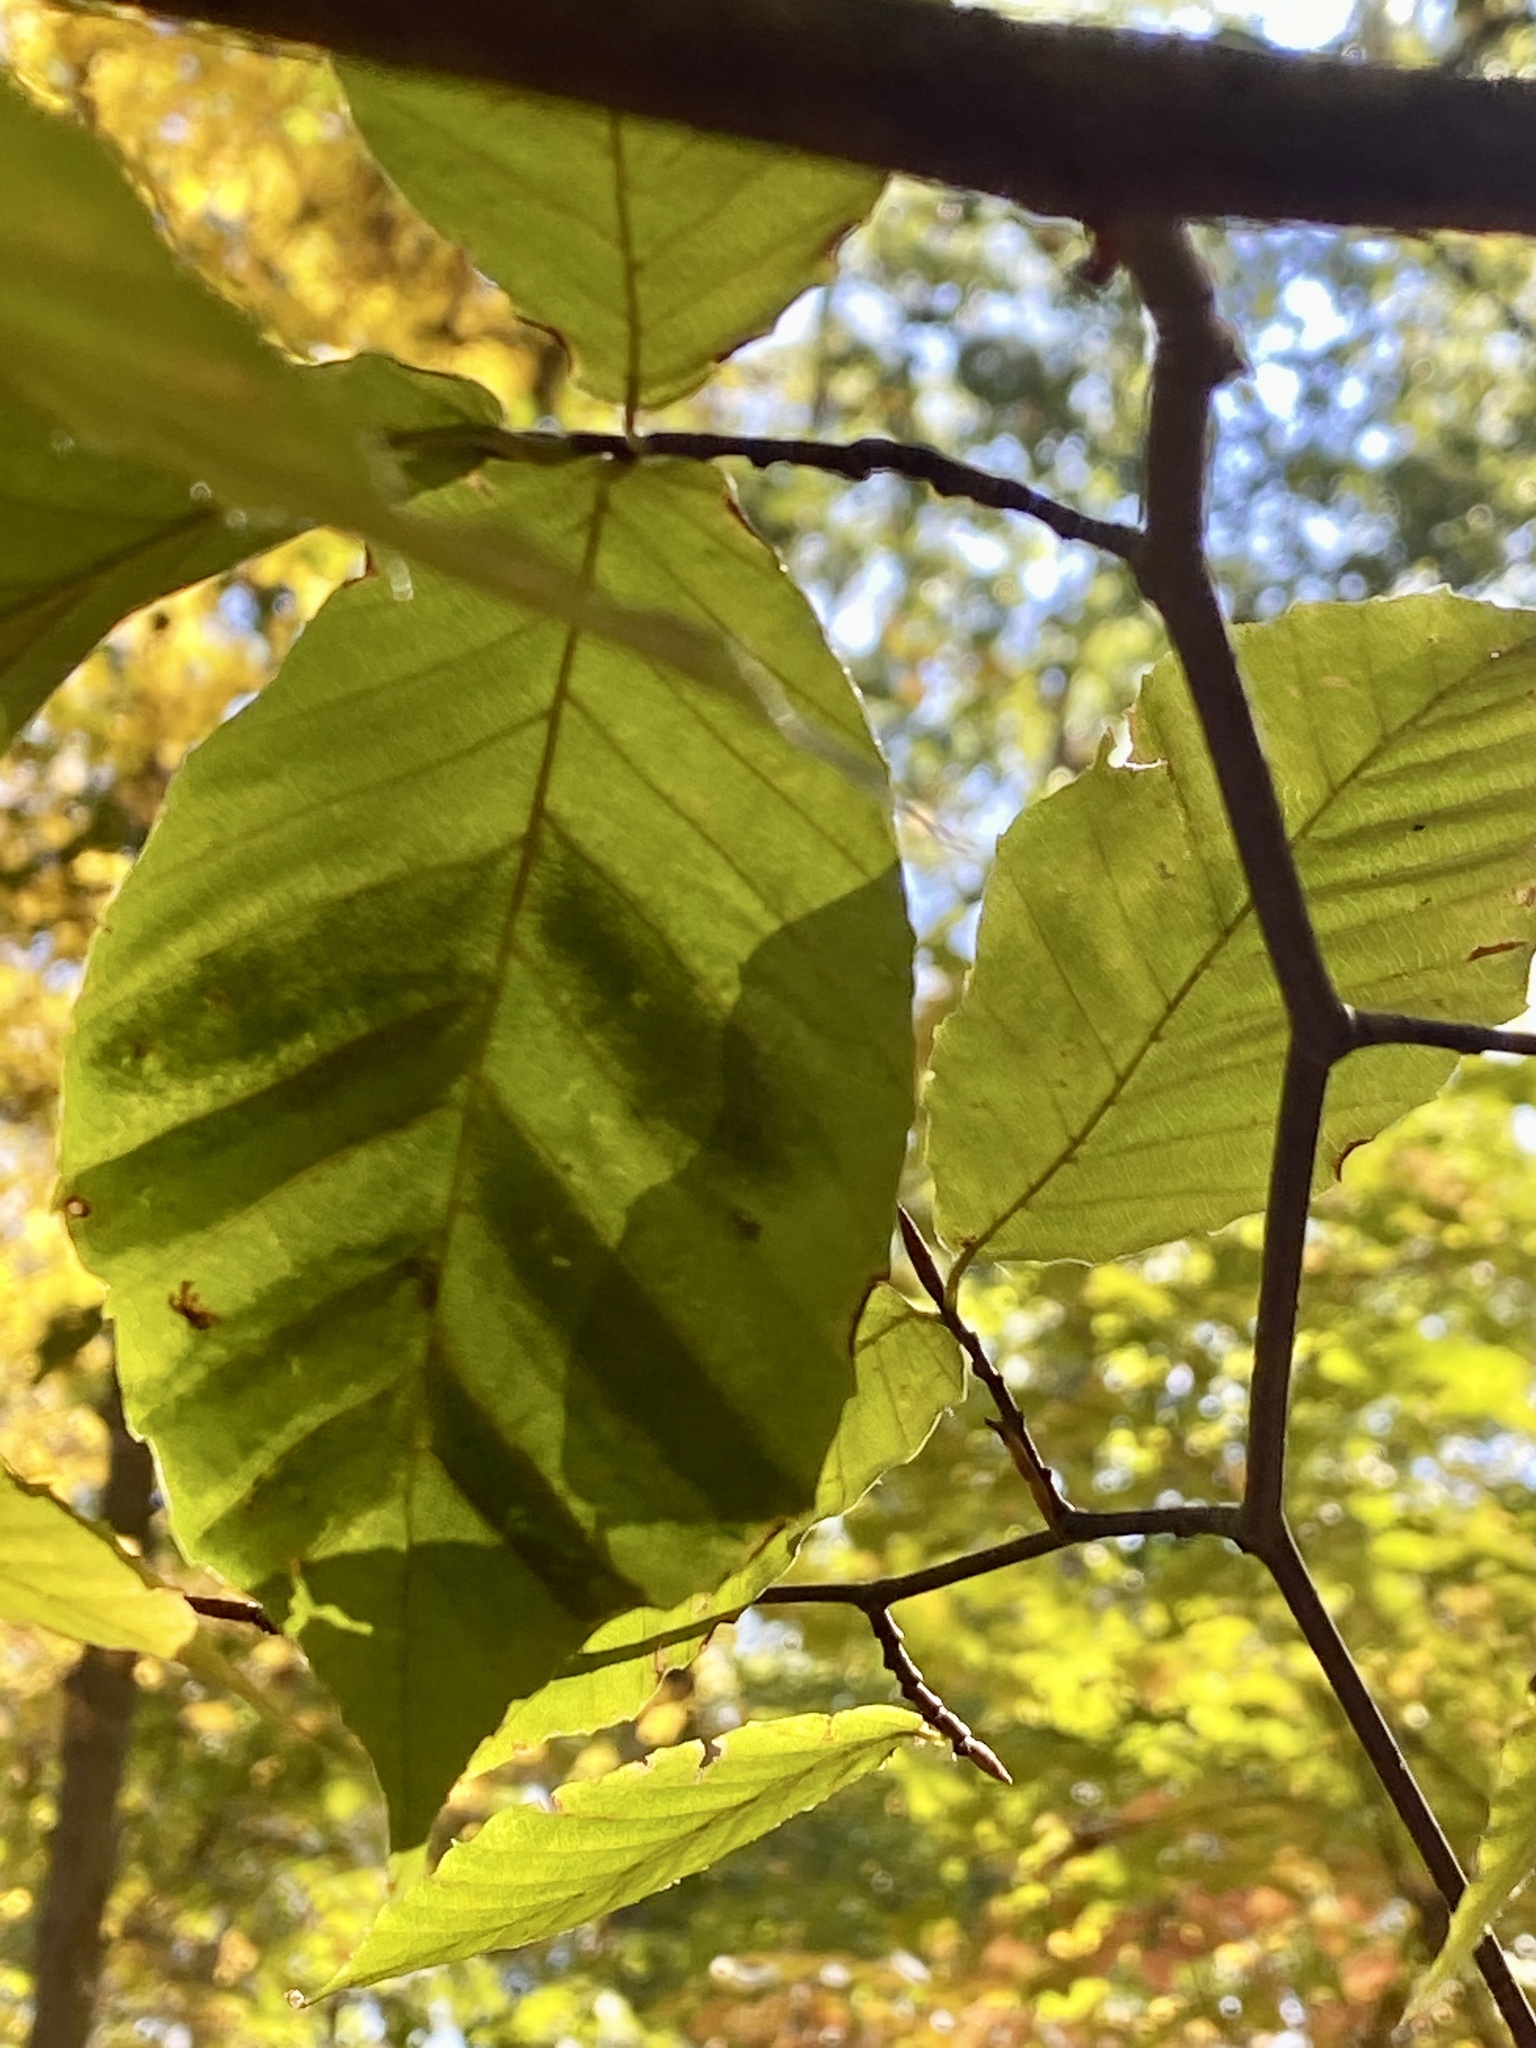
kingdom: Animalia
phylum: Nematoda
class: Chromadorea
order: Rhabditida
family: Anguinidae
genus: Litylenchus
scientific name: Litylenchus crenatae
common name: Beech leaf disease
